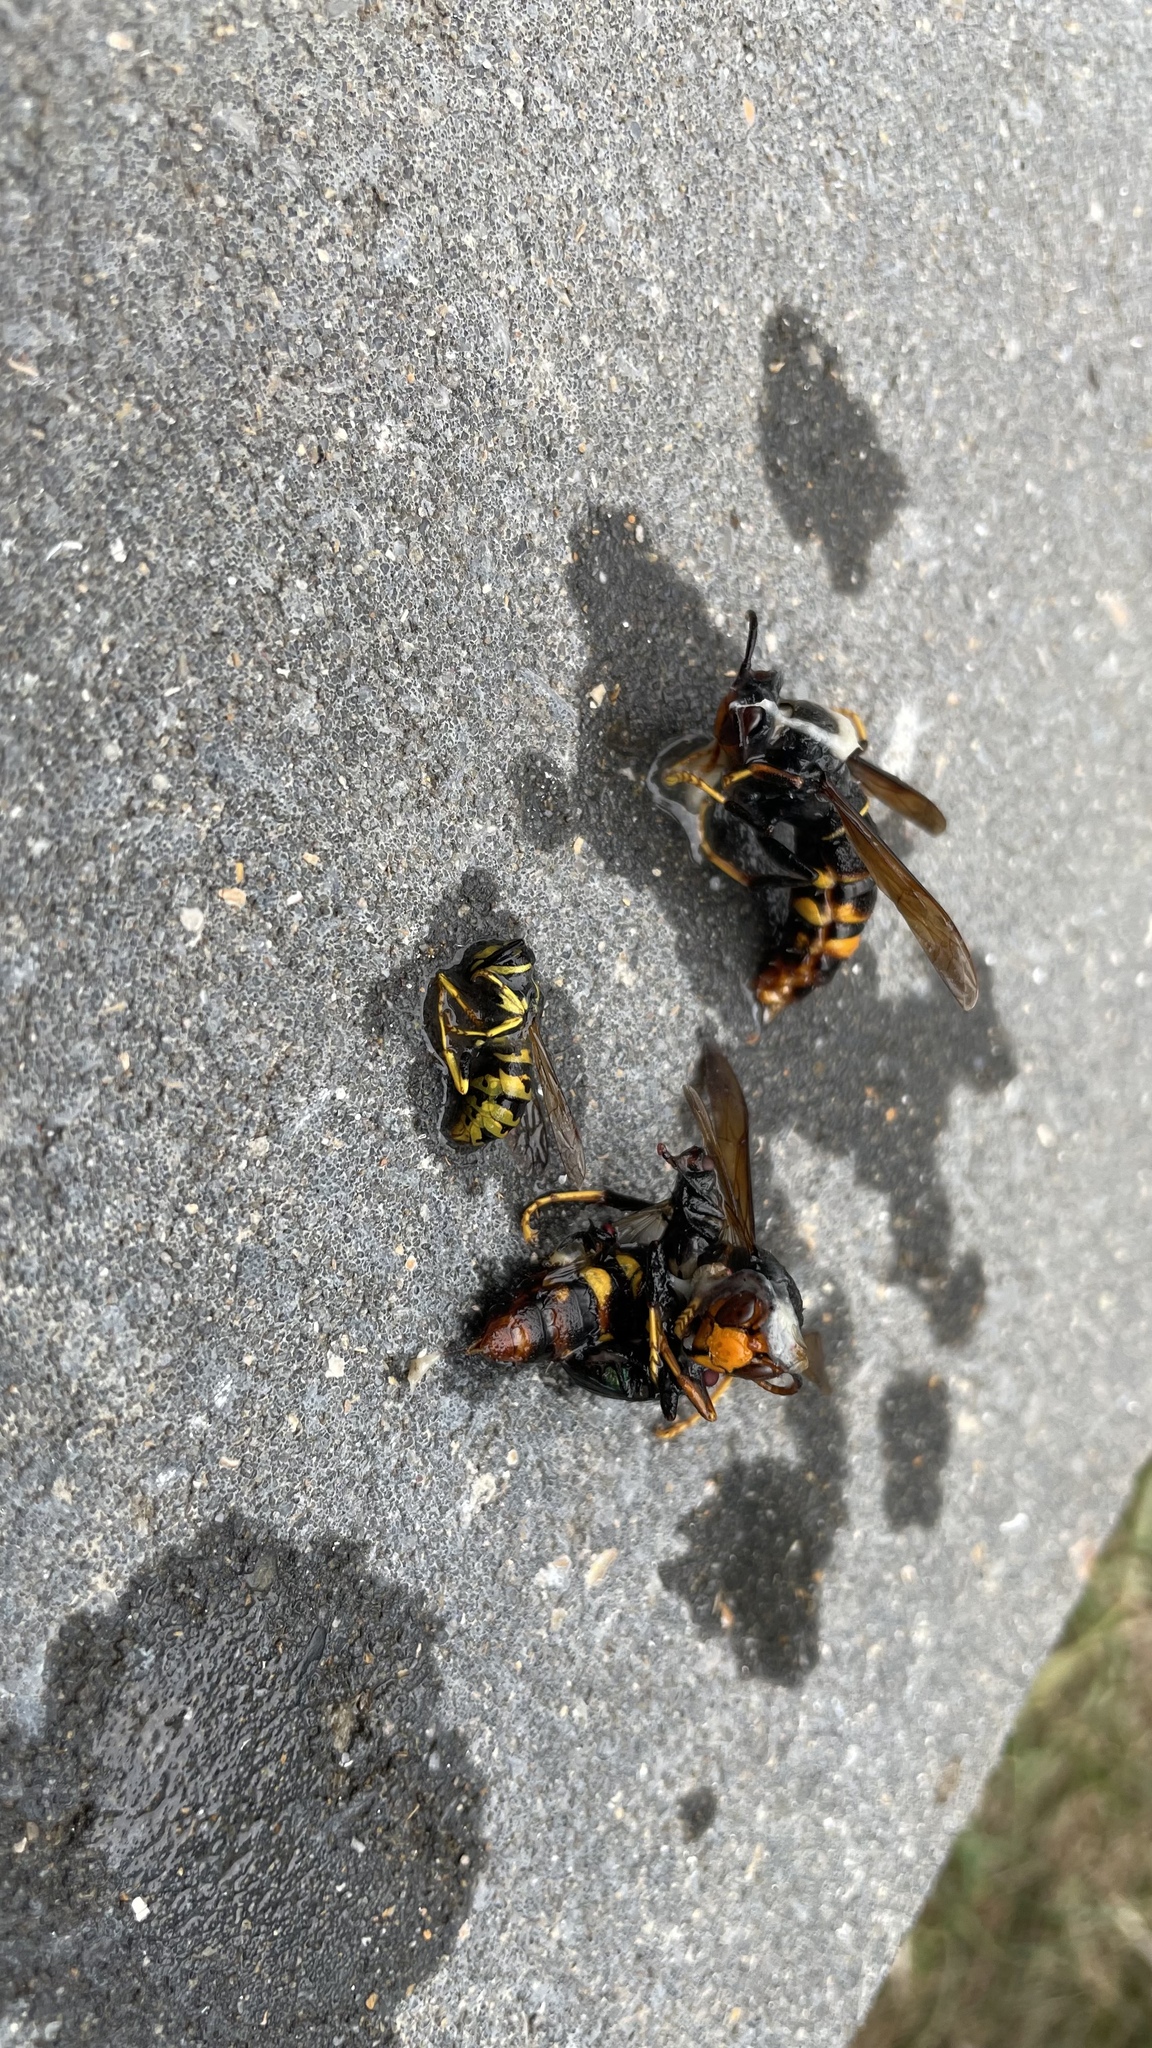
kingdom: Animalia
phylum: Arthropoda
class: Insecta
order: Hymenoptera
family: Vespidae
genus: Vespa
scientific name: Vespa velutina
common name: Asian hornet
